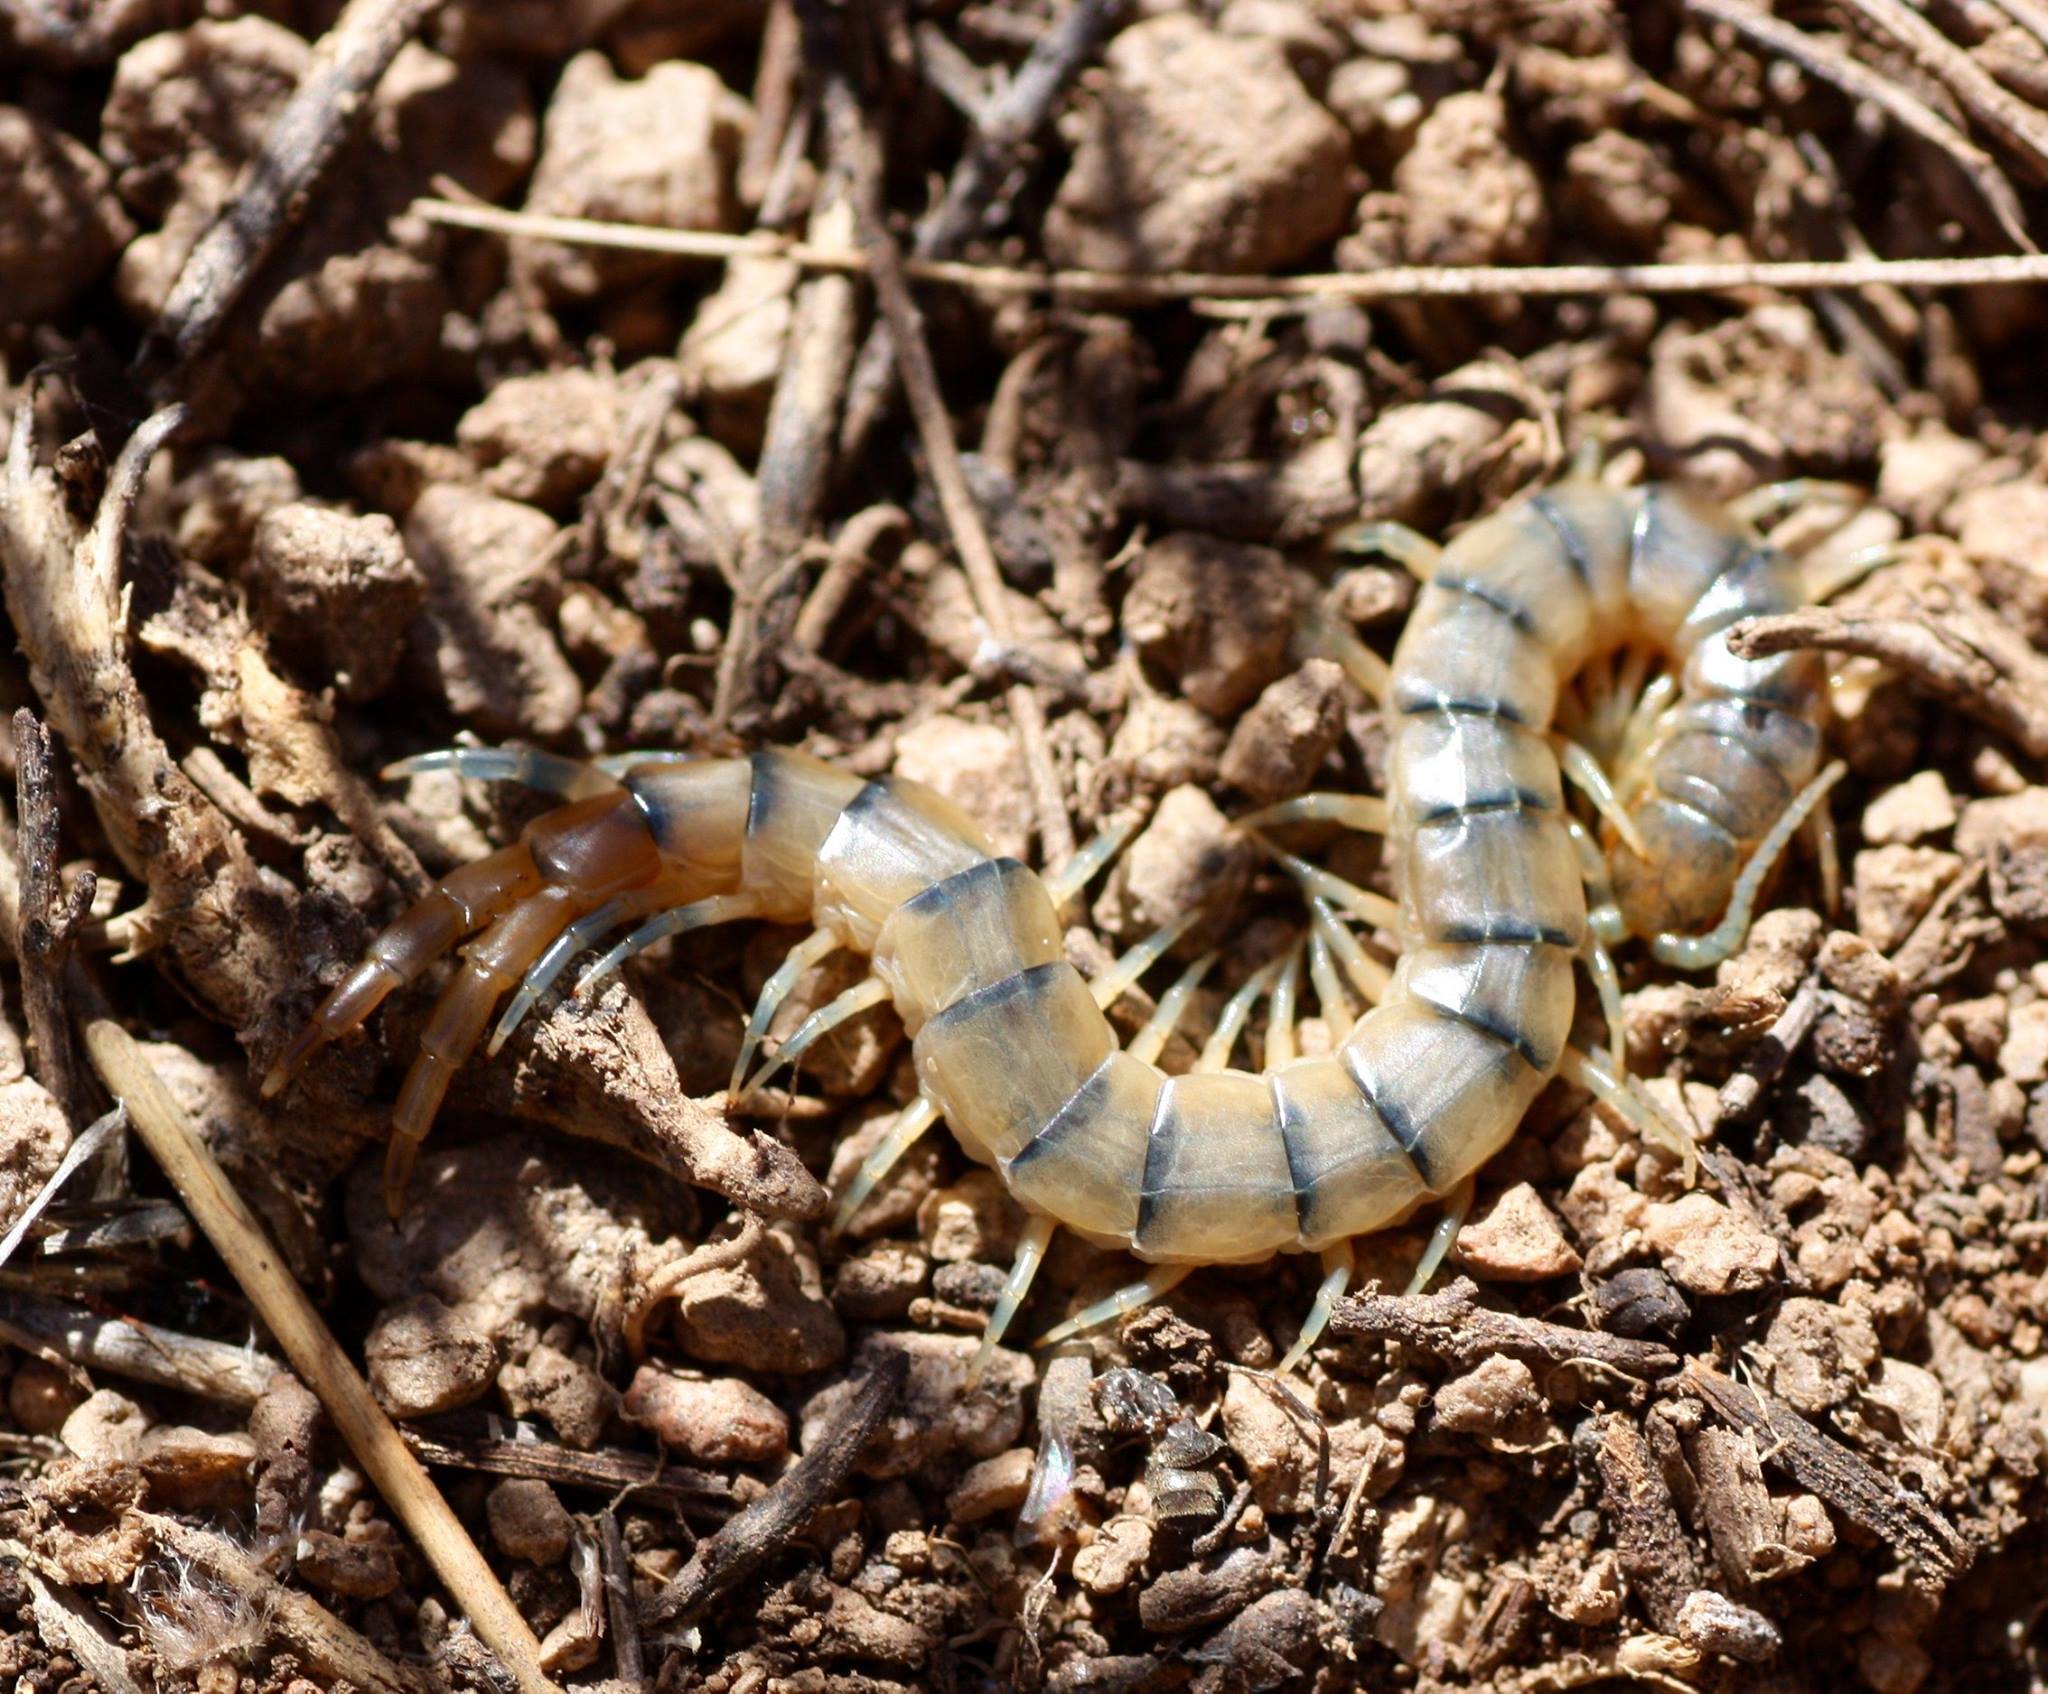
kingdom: Animalia
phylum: Arthropoda
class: Chilopoda
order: Scolopendromorpha
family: Scolopendridae
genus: Scolopendra
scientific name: Scolopendra viridis
